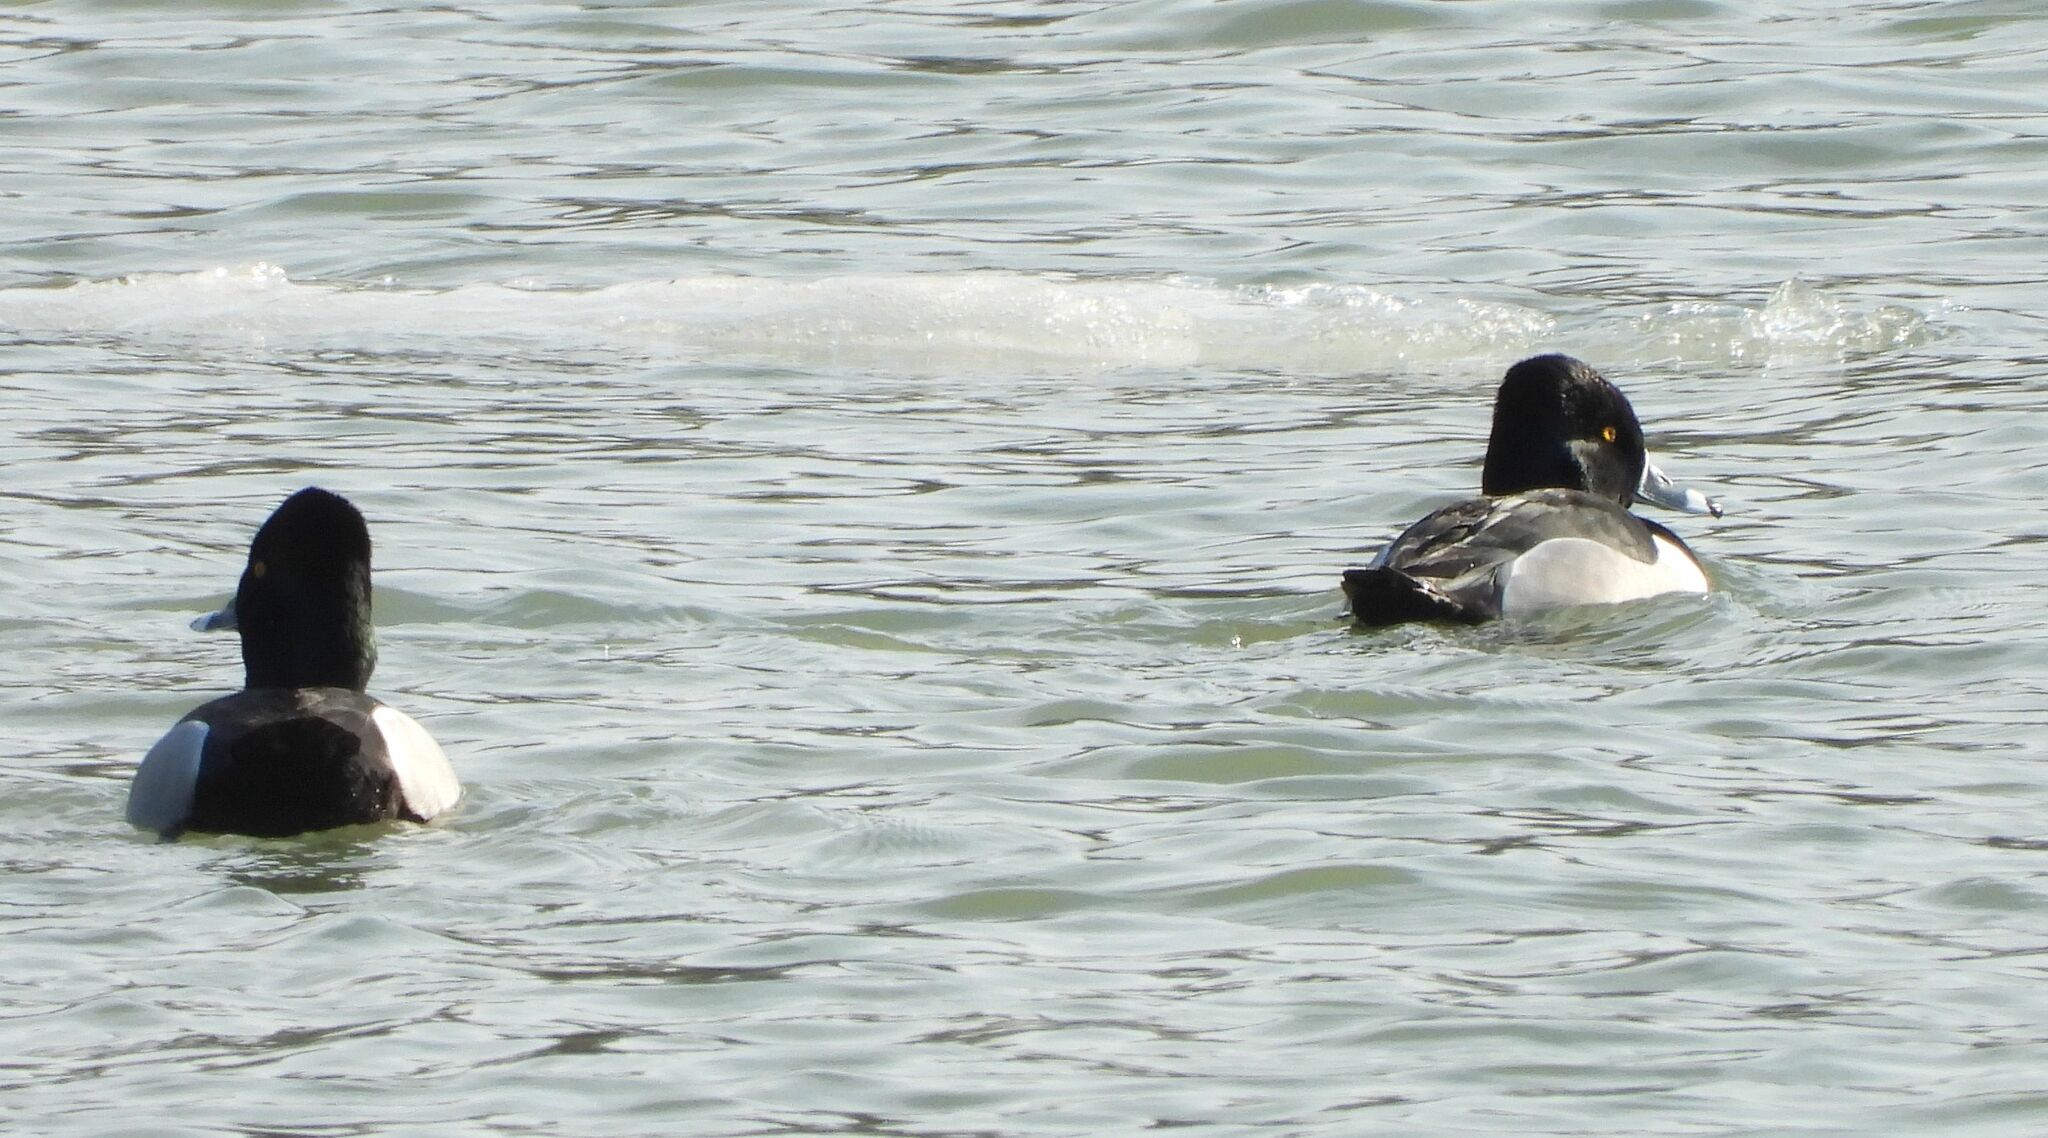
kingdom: Animalia
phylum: Chordata
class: Aves
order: Anseriformes
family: Anatidae
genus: Aythya
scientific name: Aythya collaris
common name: Ring-necked duck
